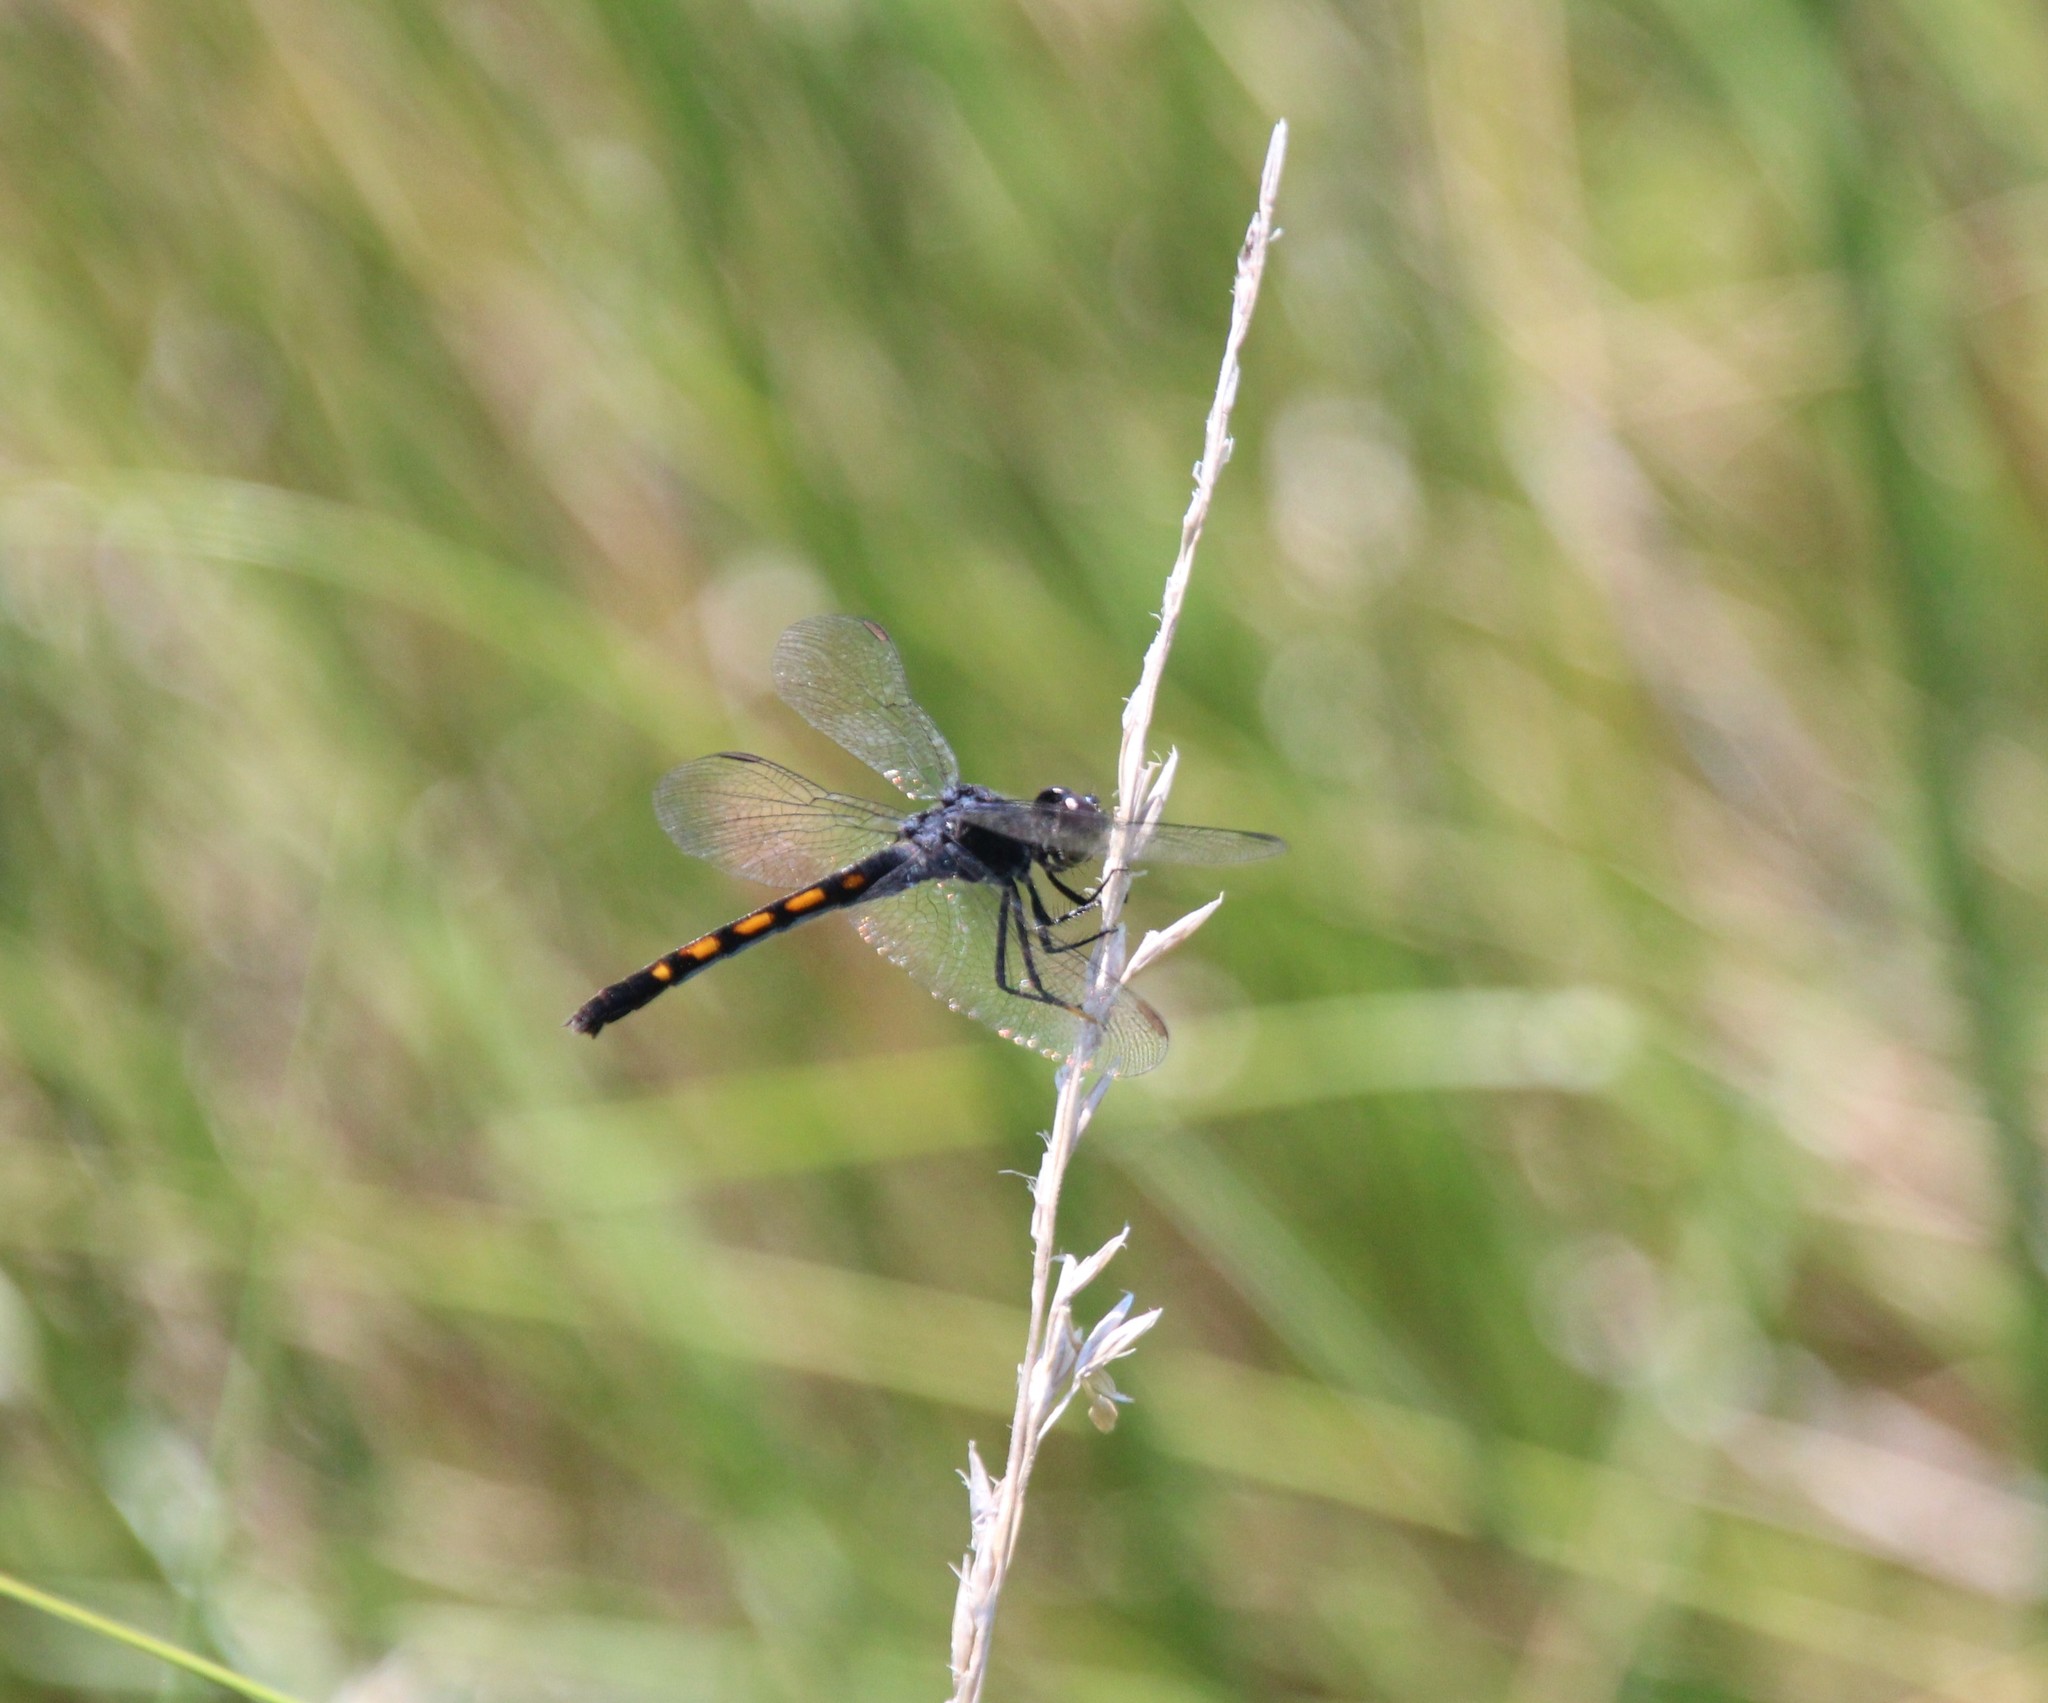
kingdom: Animalia
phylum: Arthropoda
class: Insecta
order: Odonata
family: Libellulidae
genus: Erythrodiplax
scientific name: Erythrodiplax berenice
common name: Seaside dragonlet
